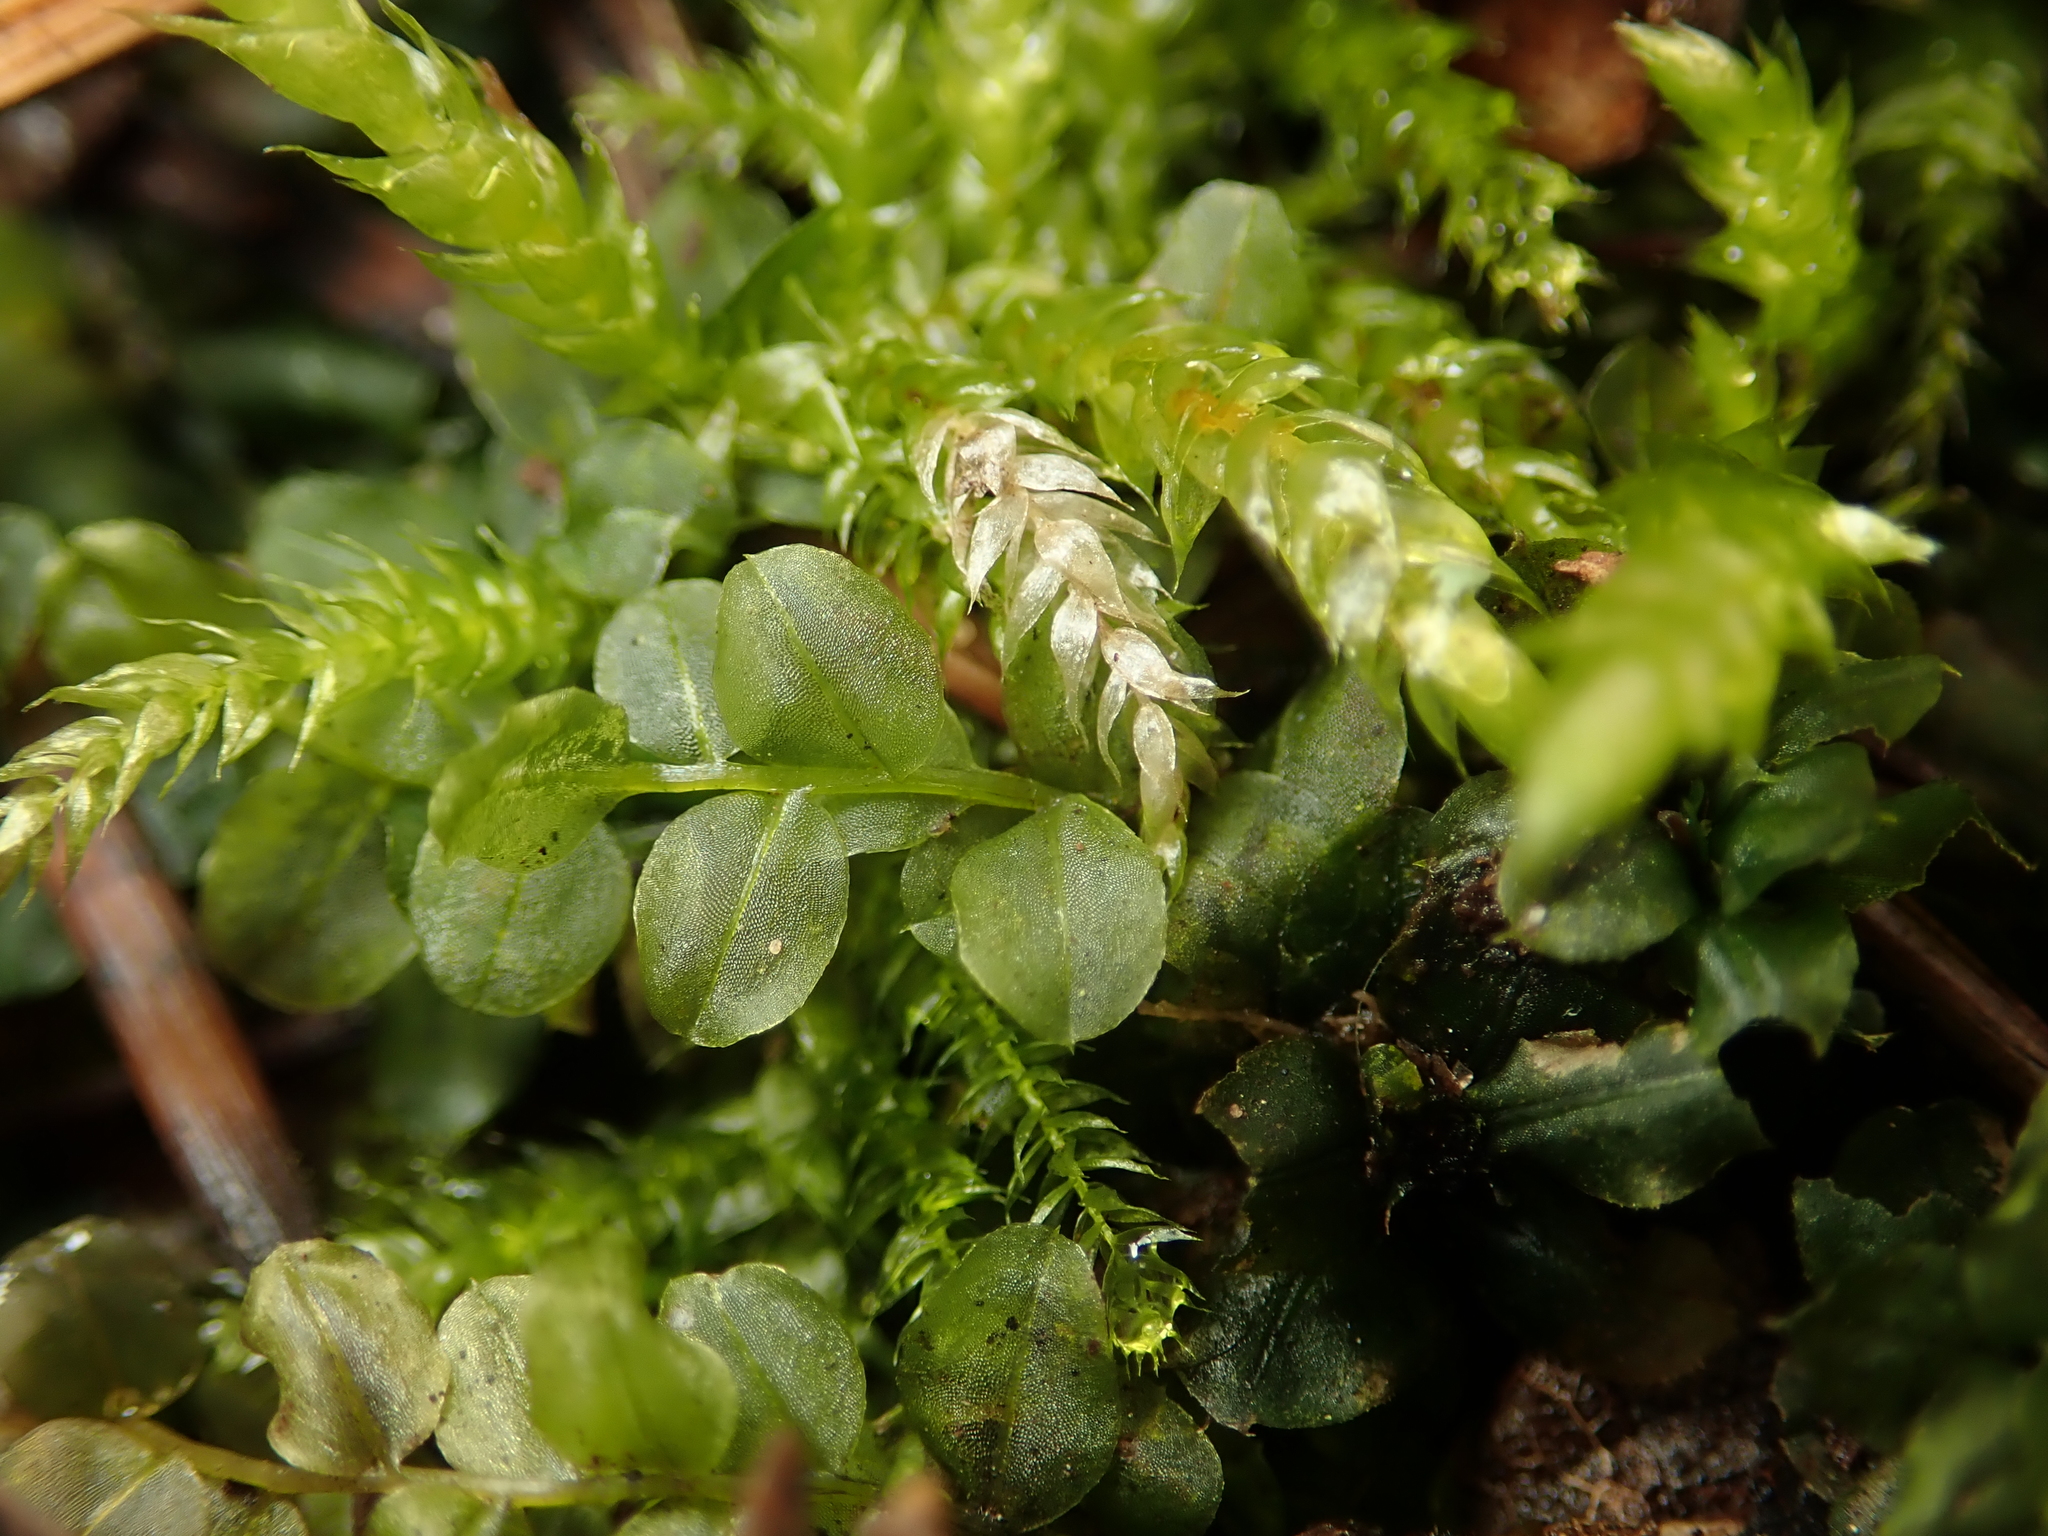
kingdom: Plantae
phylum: Bryophyta
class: Bryopsida
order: Bryales
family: Mniaceae
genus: Plagiomnium
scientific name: Plagiomnium cuspidatum
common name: Woodsy leafy moss
